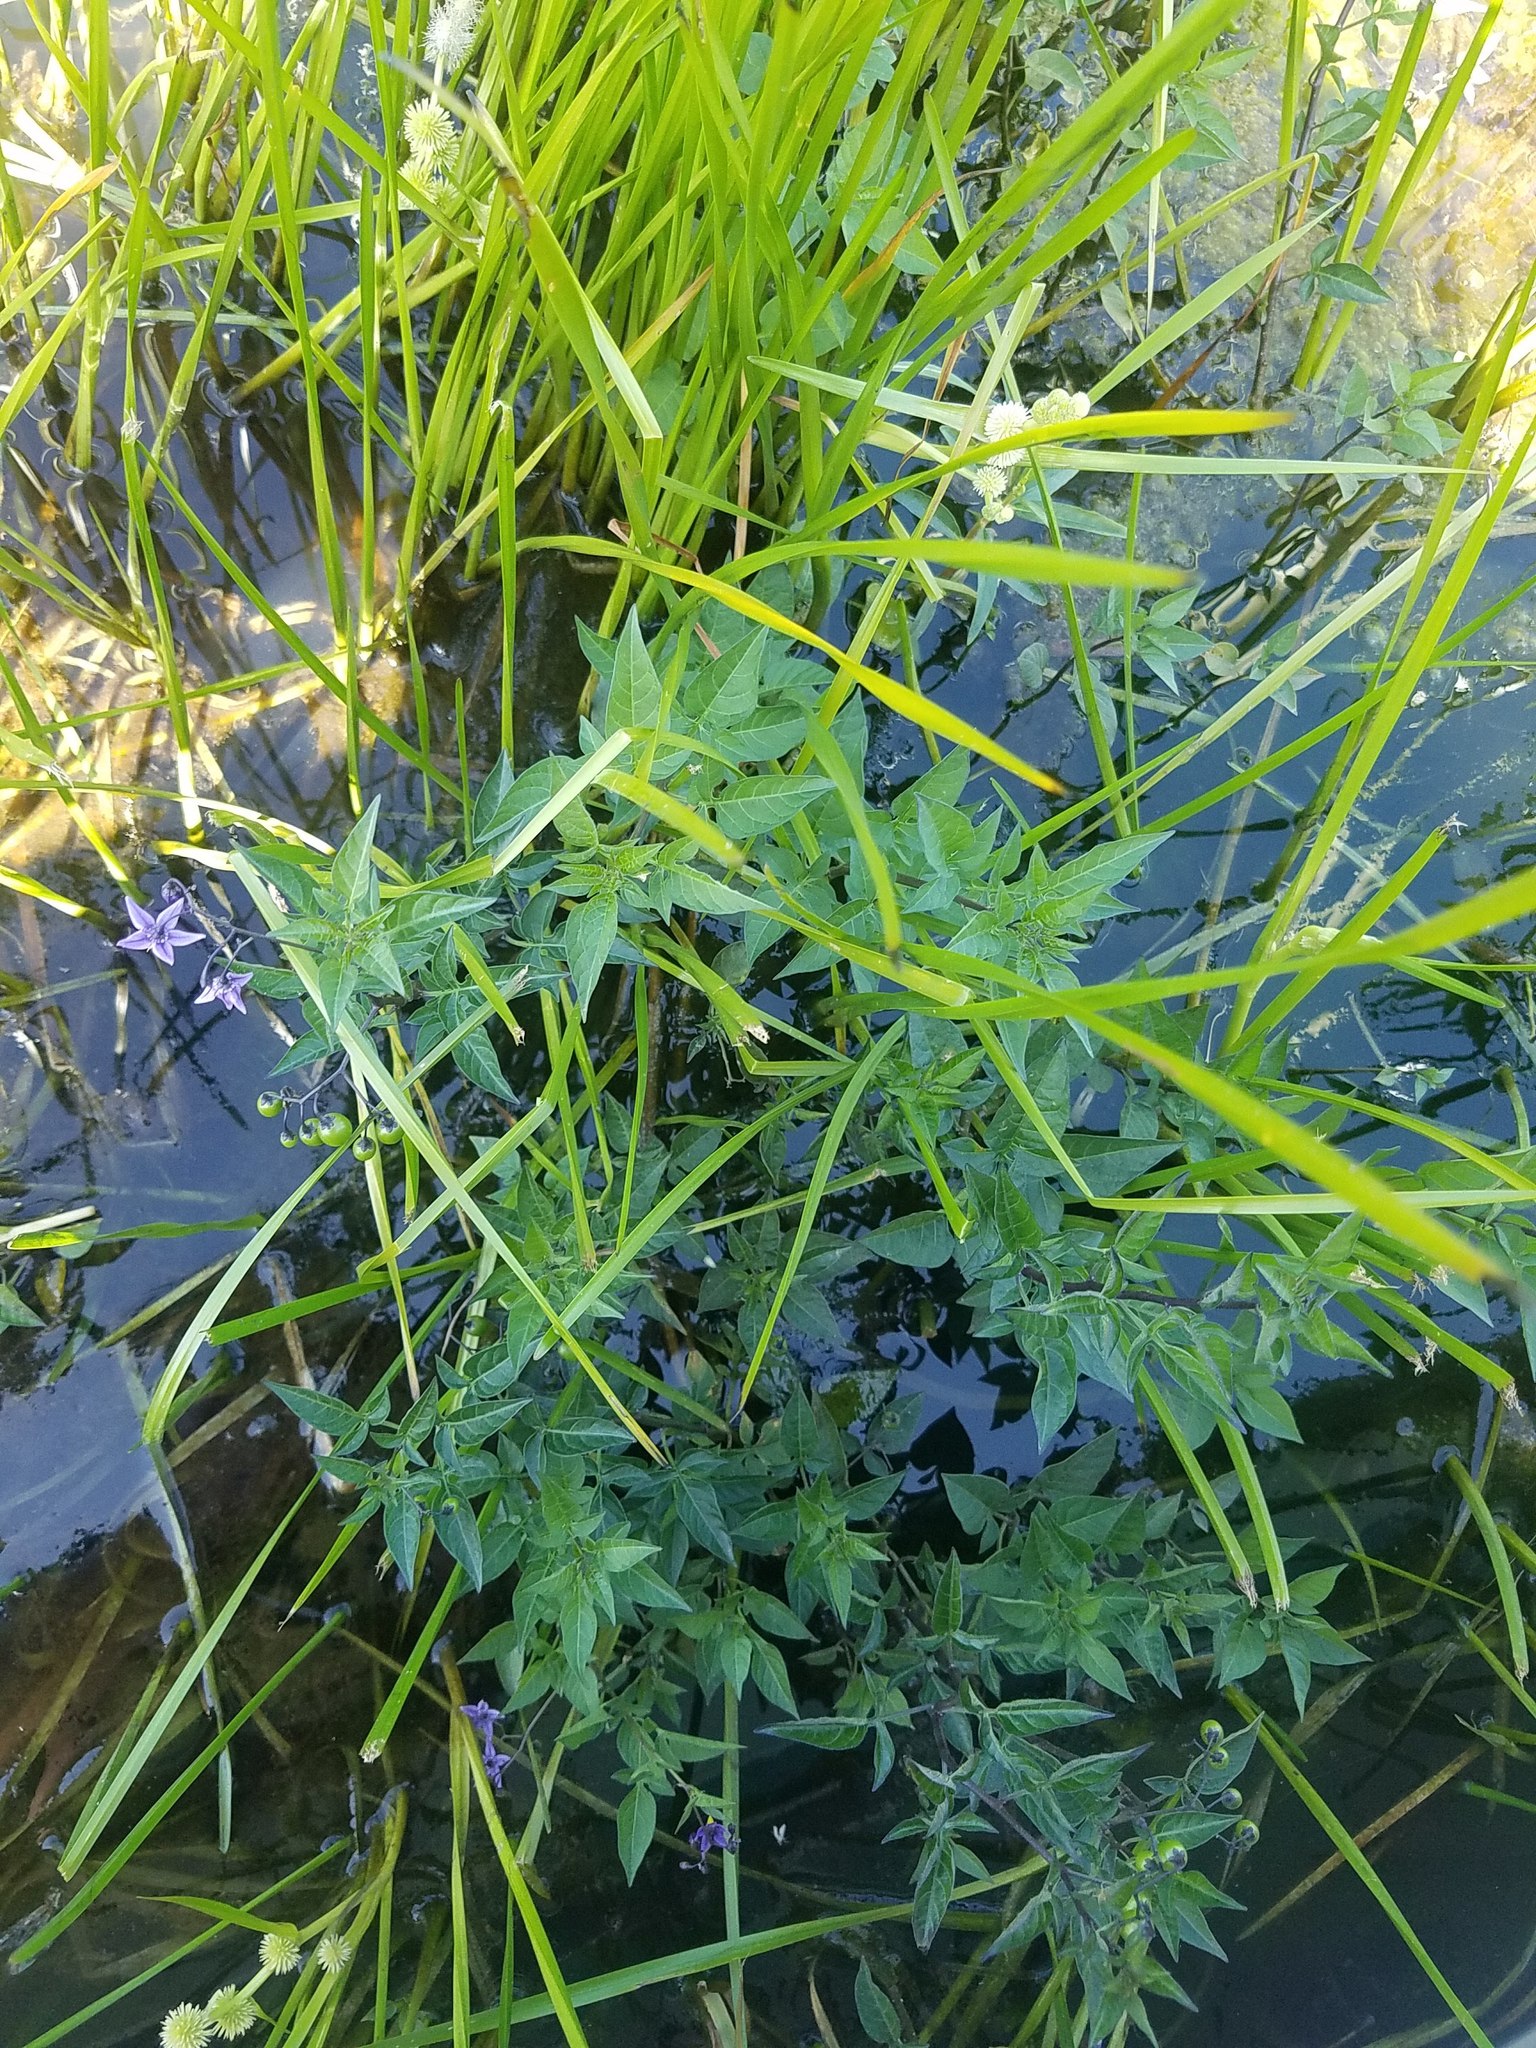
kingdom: Plantae
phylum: Tracheophyta
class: Magnoliopsida
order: Solanales
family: Solanaceae
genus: Solanum
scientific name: Solanum dulcamara
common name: Climbing nightshade
